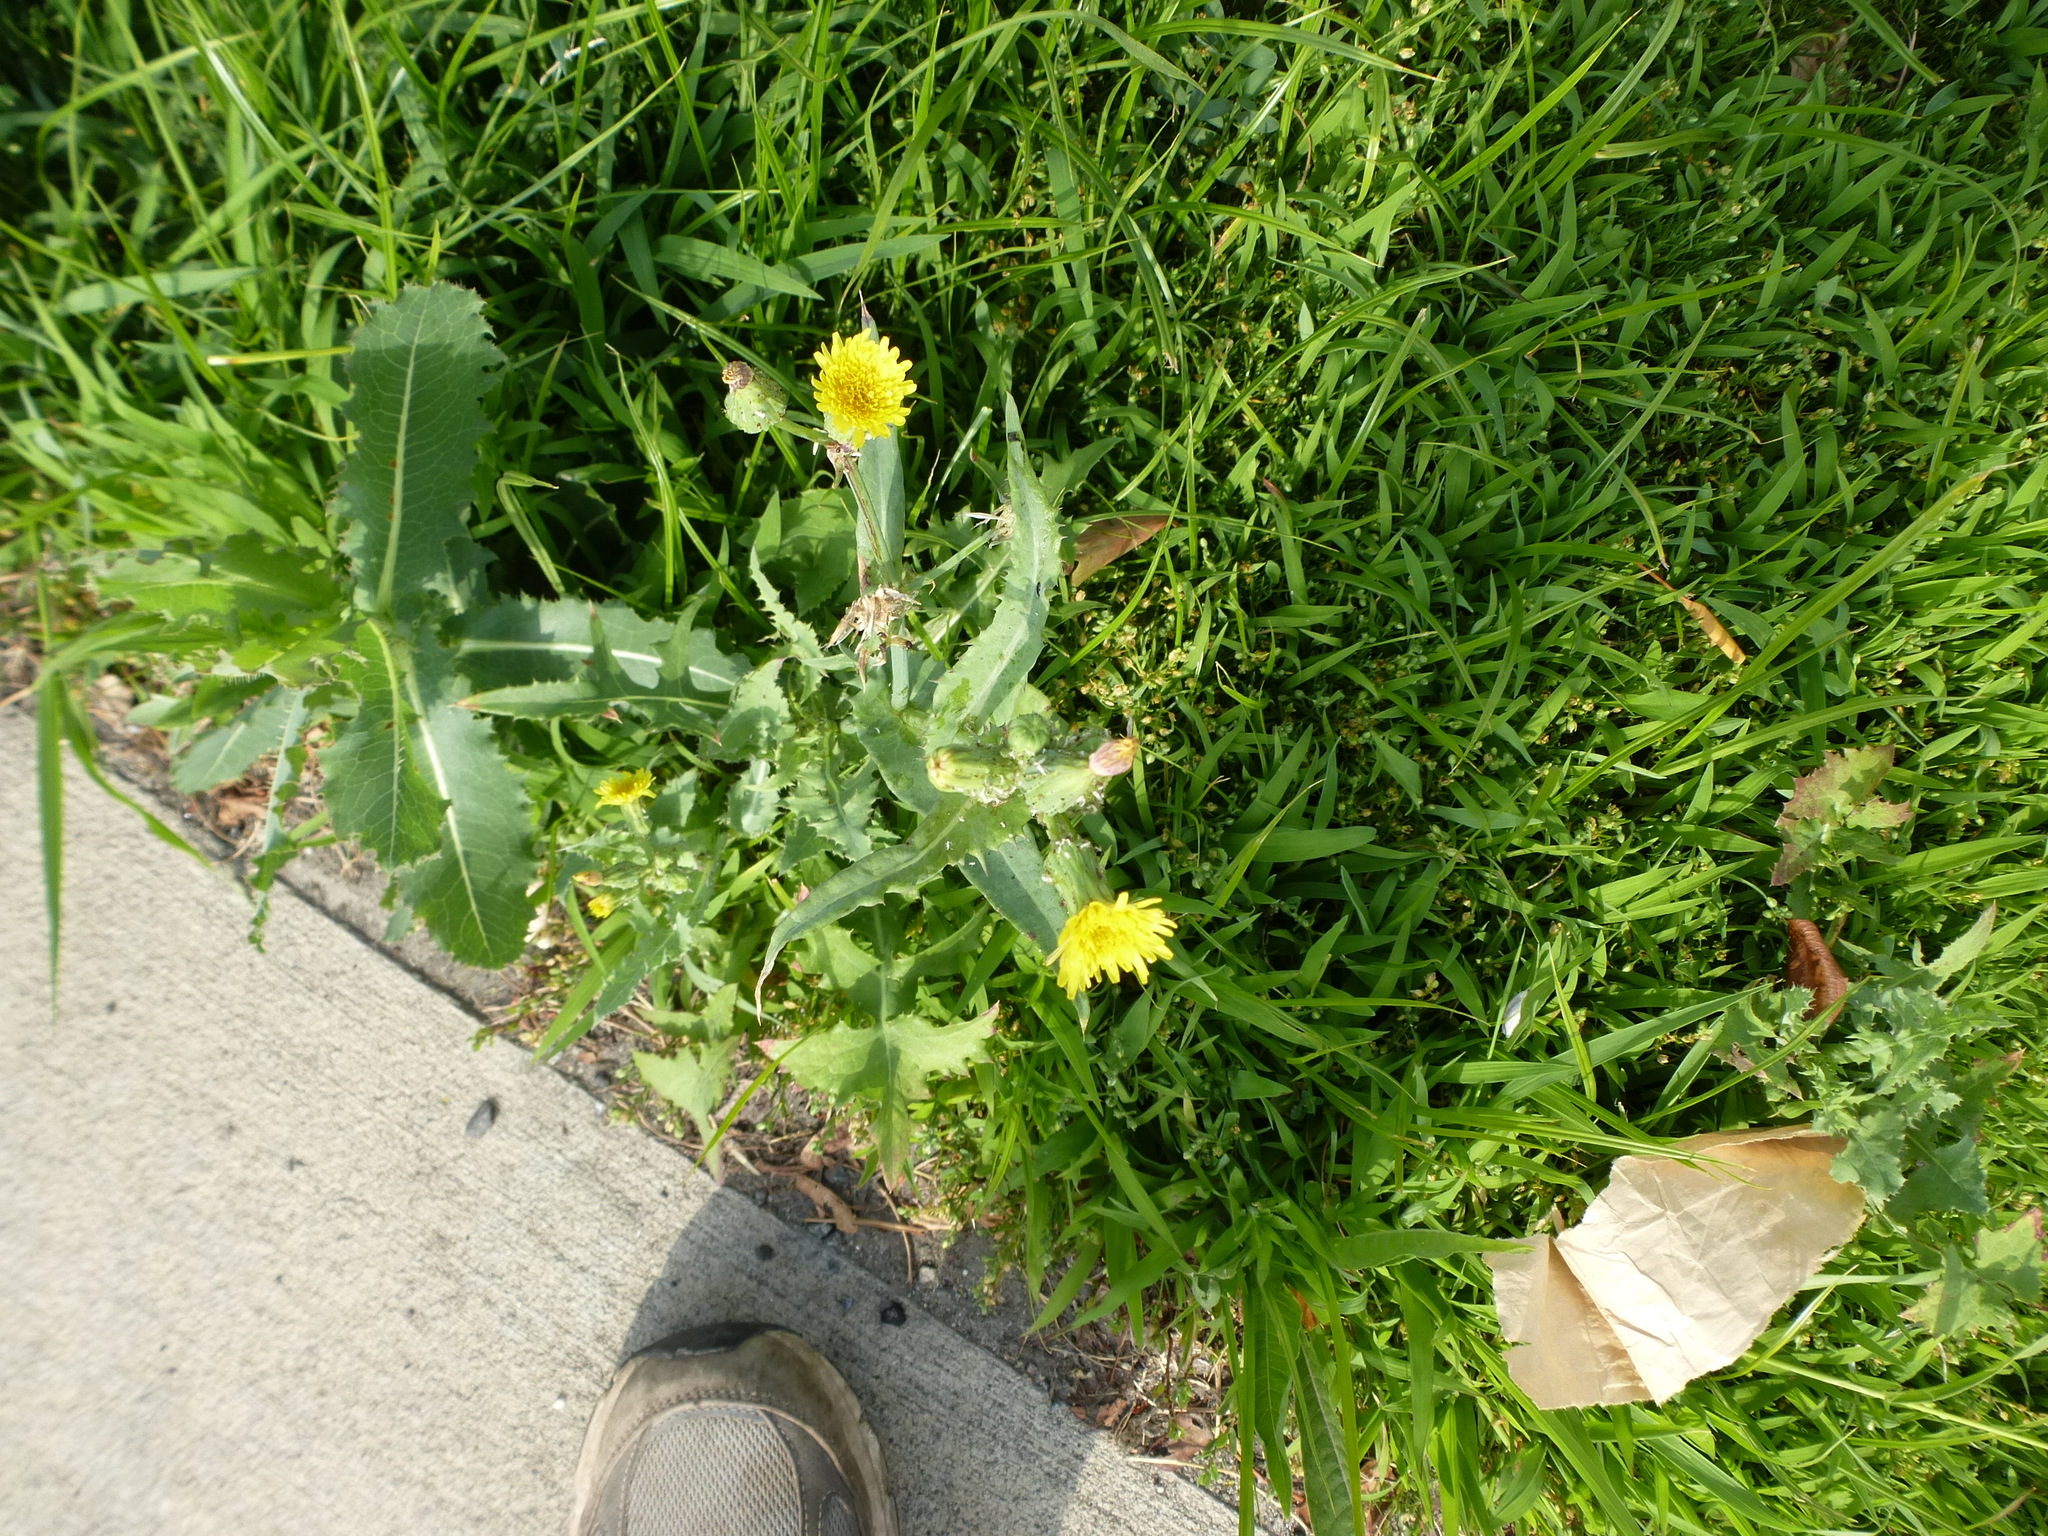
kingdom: Plantae
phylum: Tracheophyta
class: Magnoliopsida
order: Asterales
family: Asteraceae
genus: Sonchus
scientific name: Sonchus oleraceus
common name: Common sowthistle
